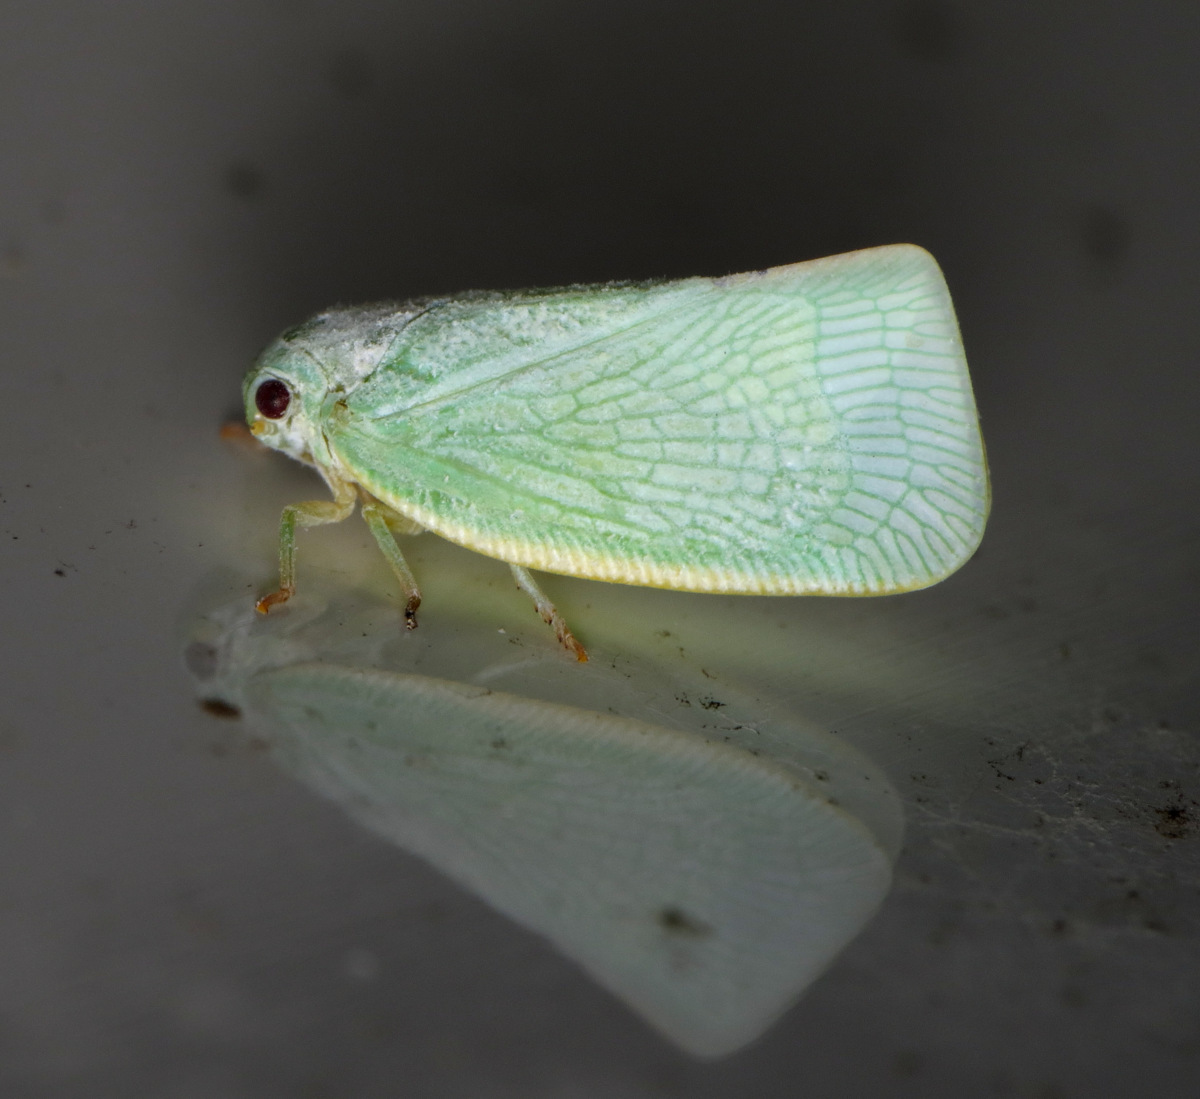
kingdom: Animalia
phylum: Arthropoda
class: Insecta
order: Hemiptera
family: Flatidae
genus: Flatormenis
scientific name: Flatormenis proxima
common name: Northern flatid planthopper
